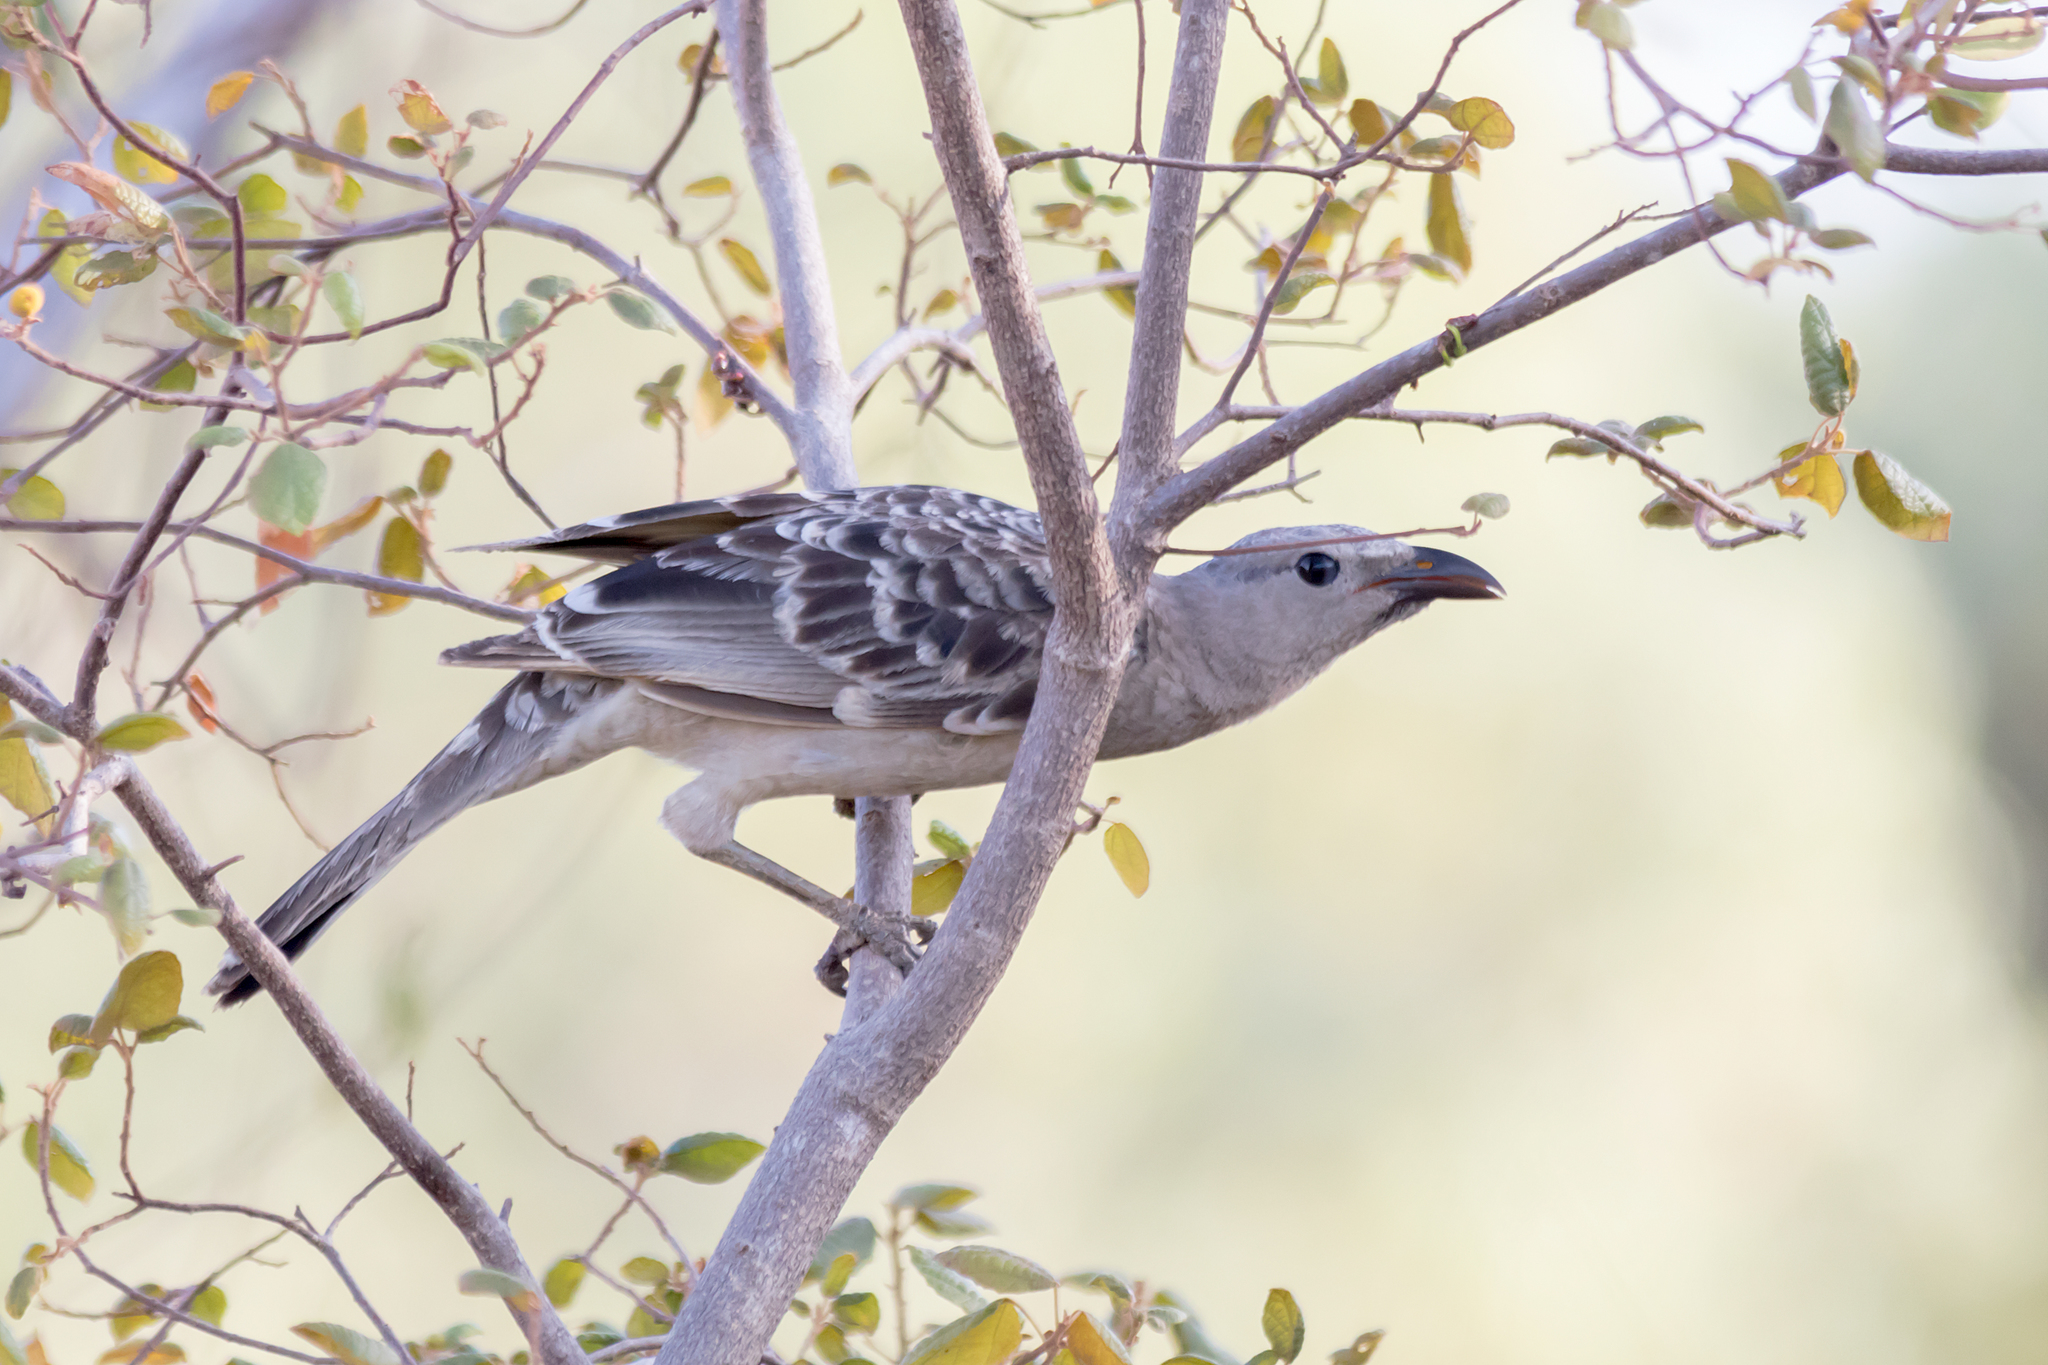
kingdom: Animalia
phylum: Chordata
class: Aves
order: Passeriformes
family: Ptilonorhynchidae
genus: Chlamydera
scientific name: Chlamydera nuchalis
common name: Great bowerbird
